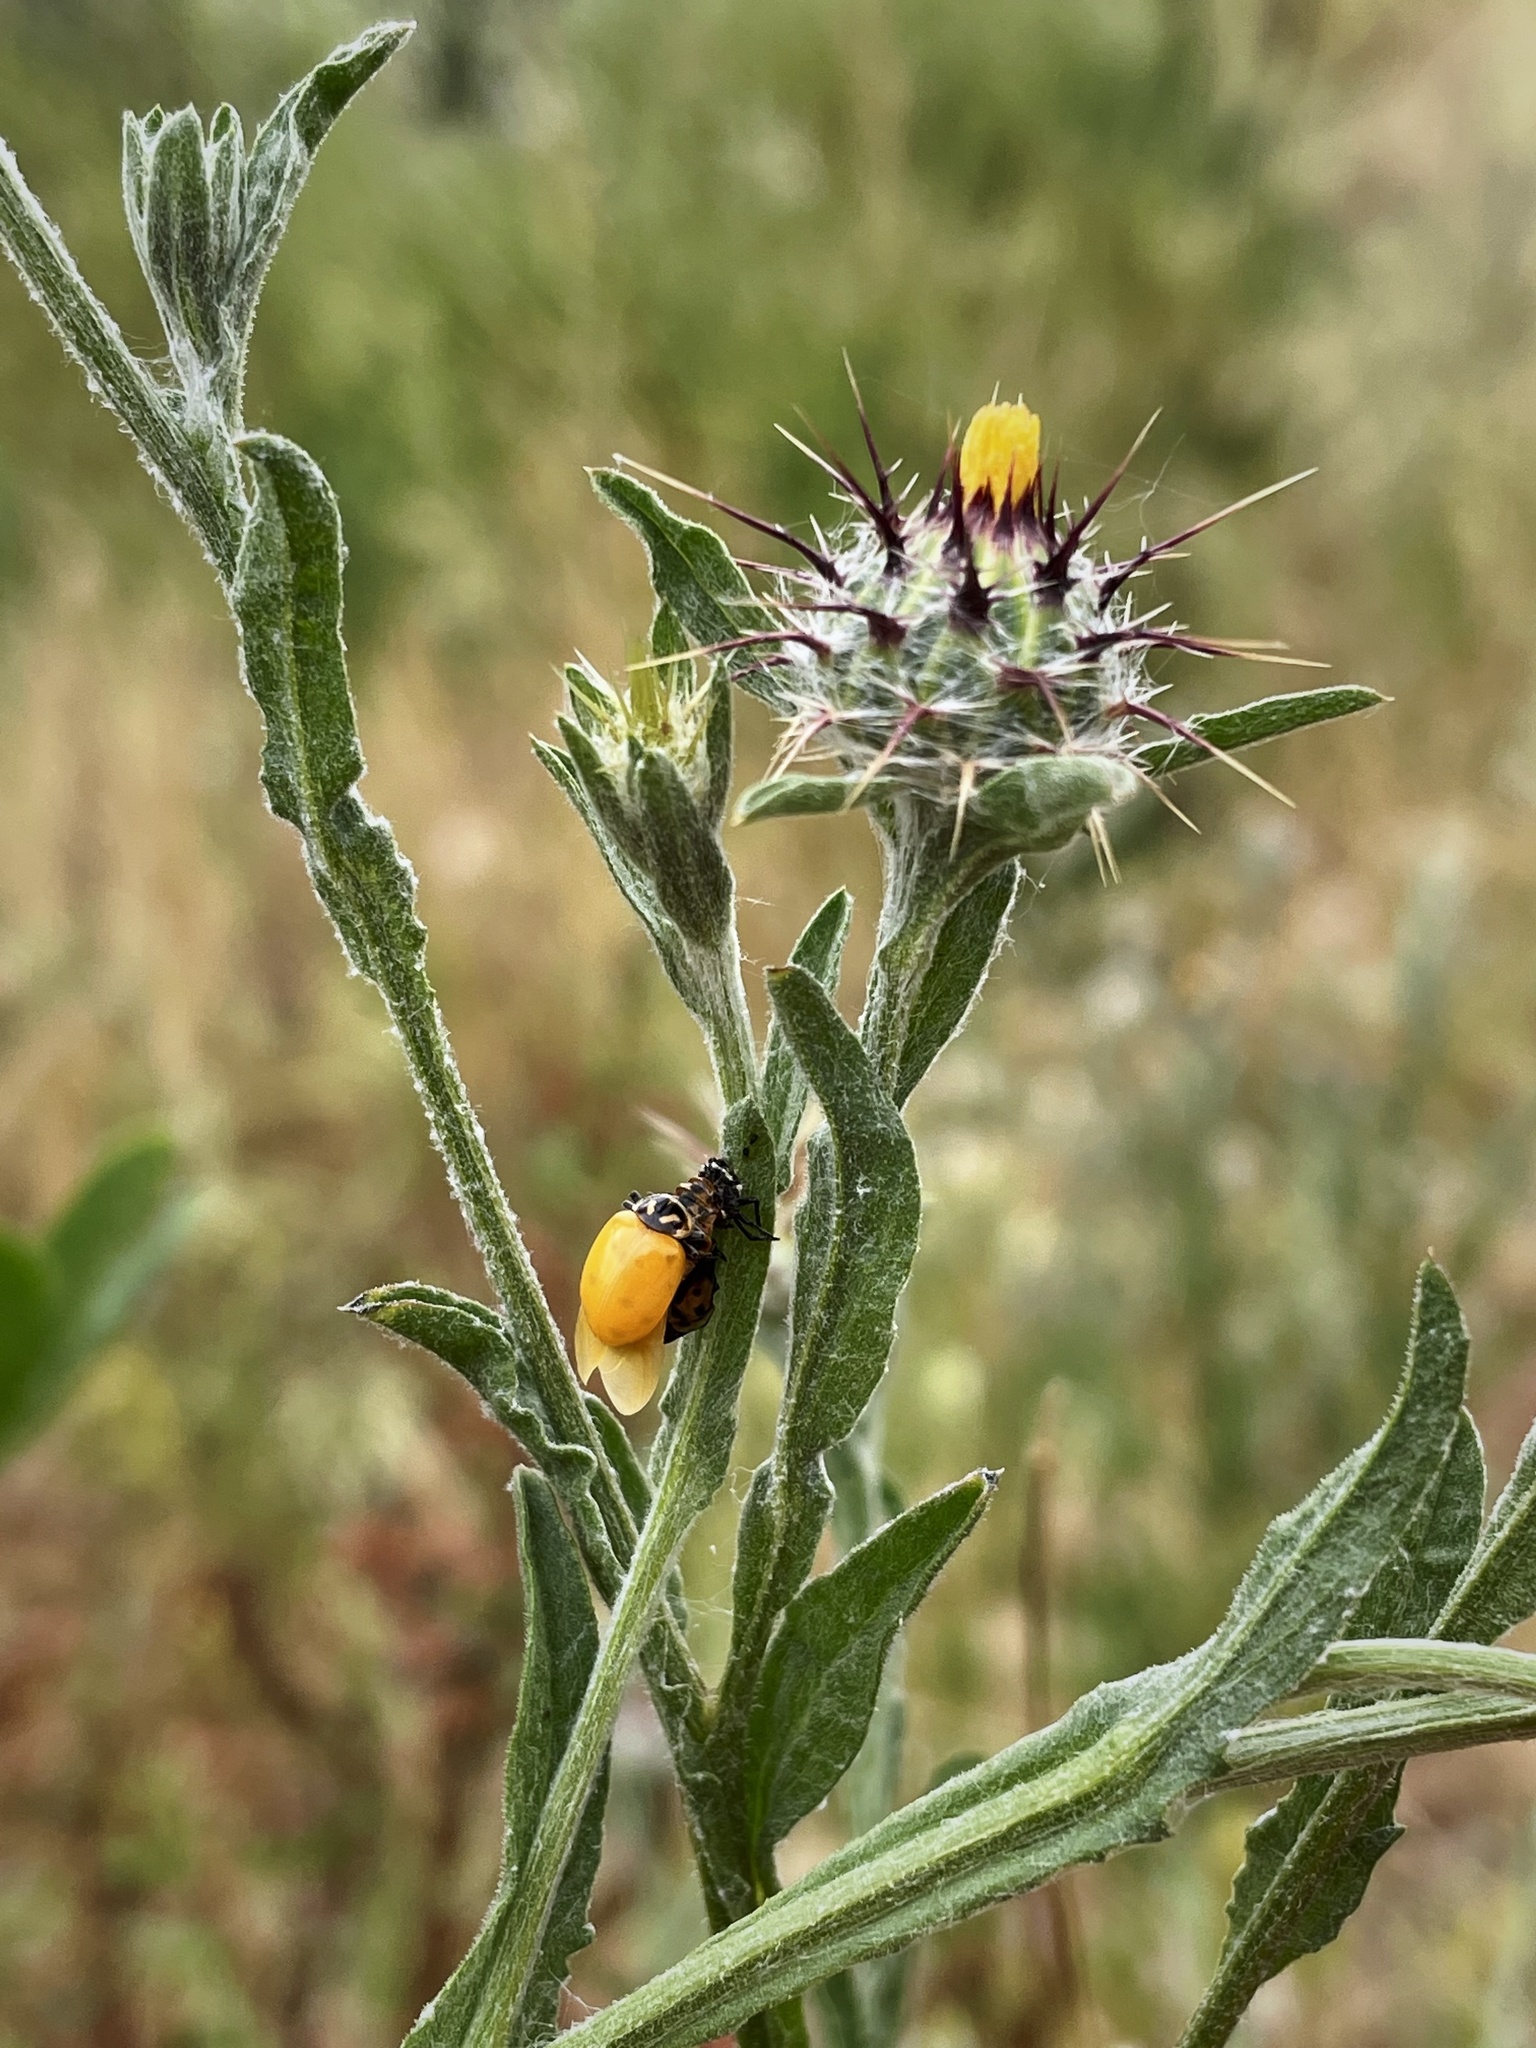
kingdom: Plantae
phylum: Tracheophyta
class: Magnoliopsida
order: Asterales
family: Asteraceae
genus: Centaurea
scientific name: Centaurea melitensis
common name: Maltese star-thistle
